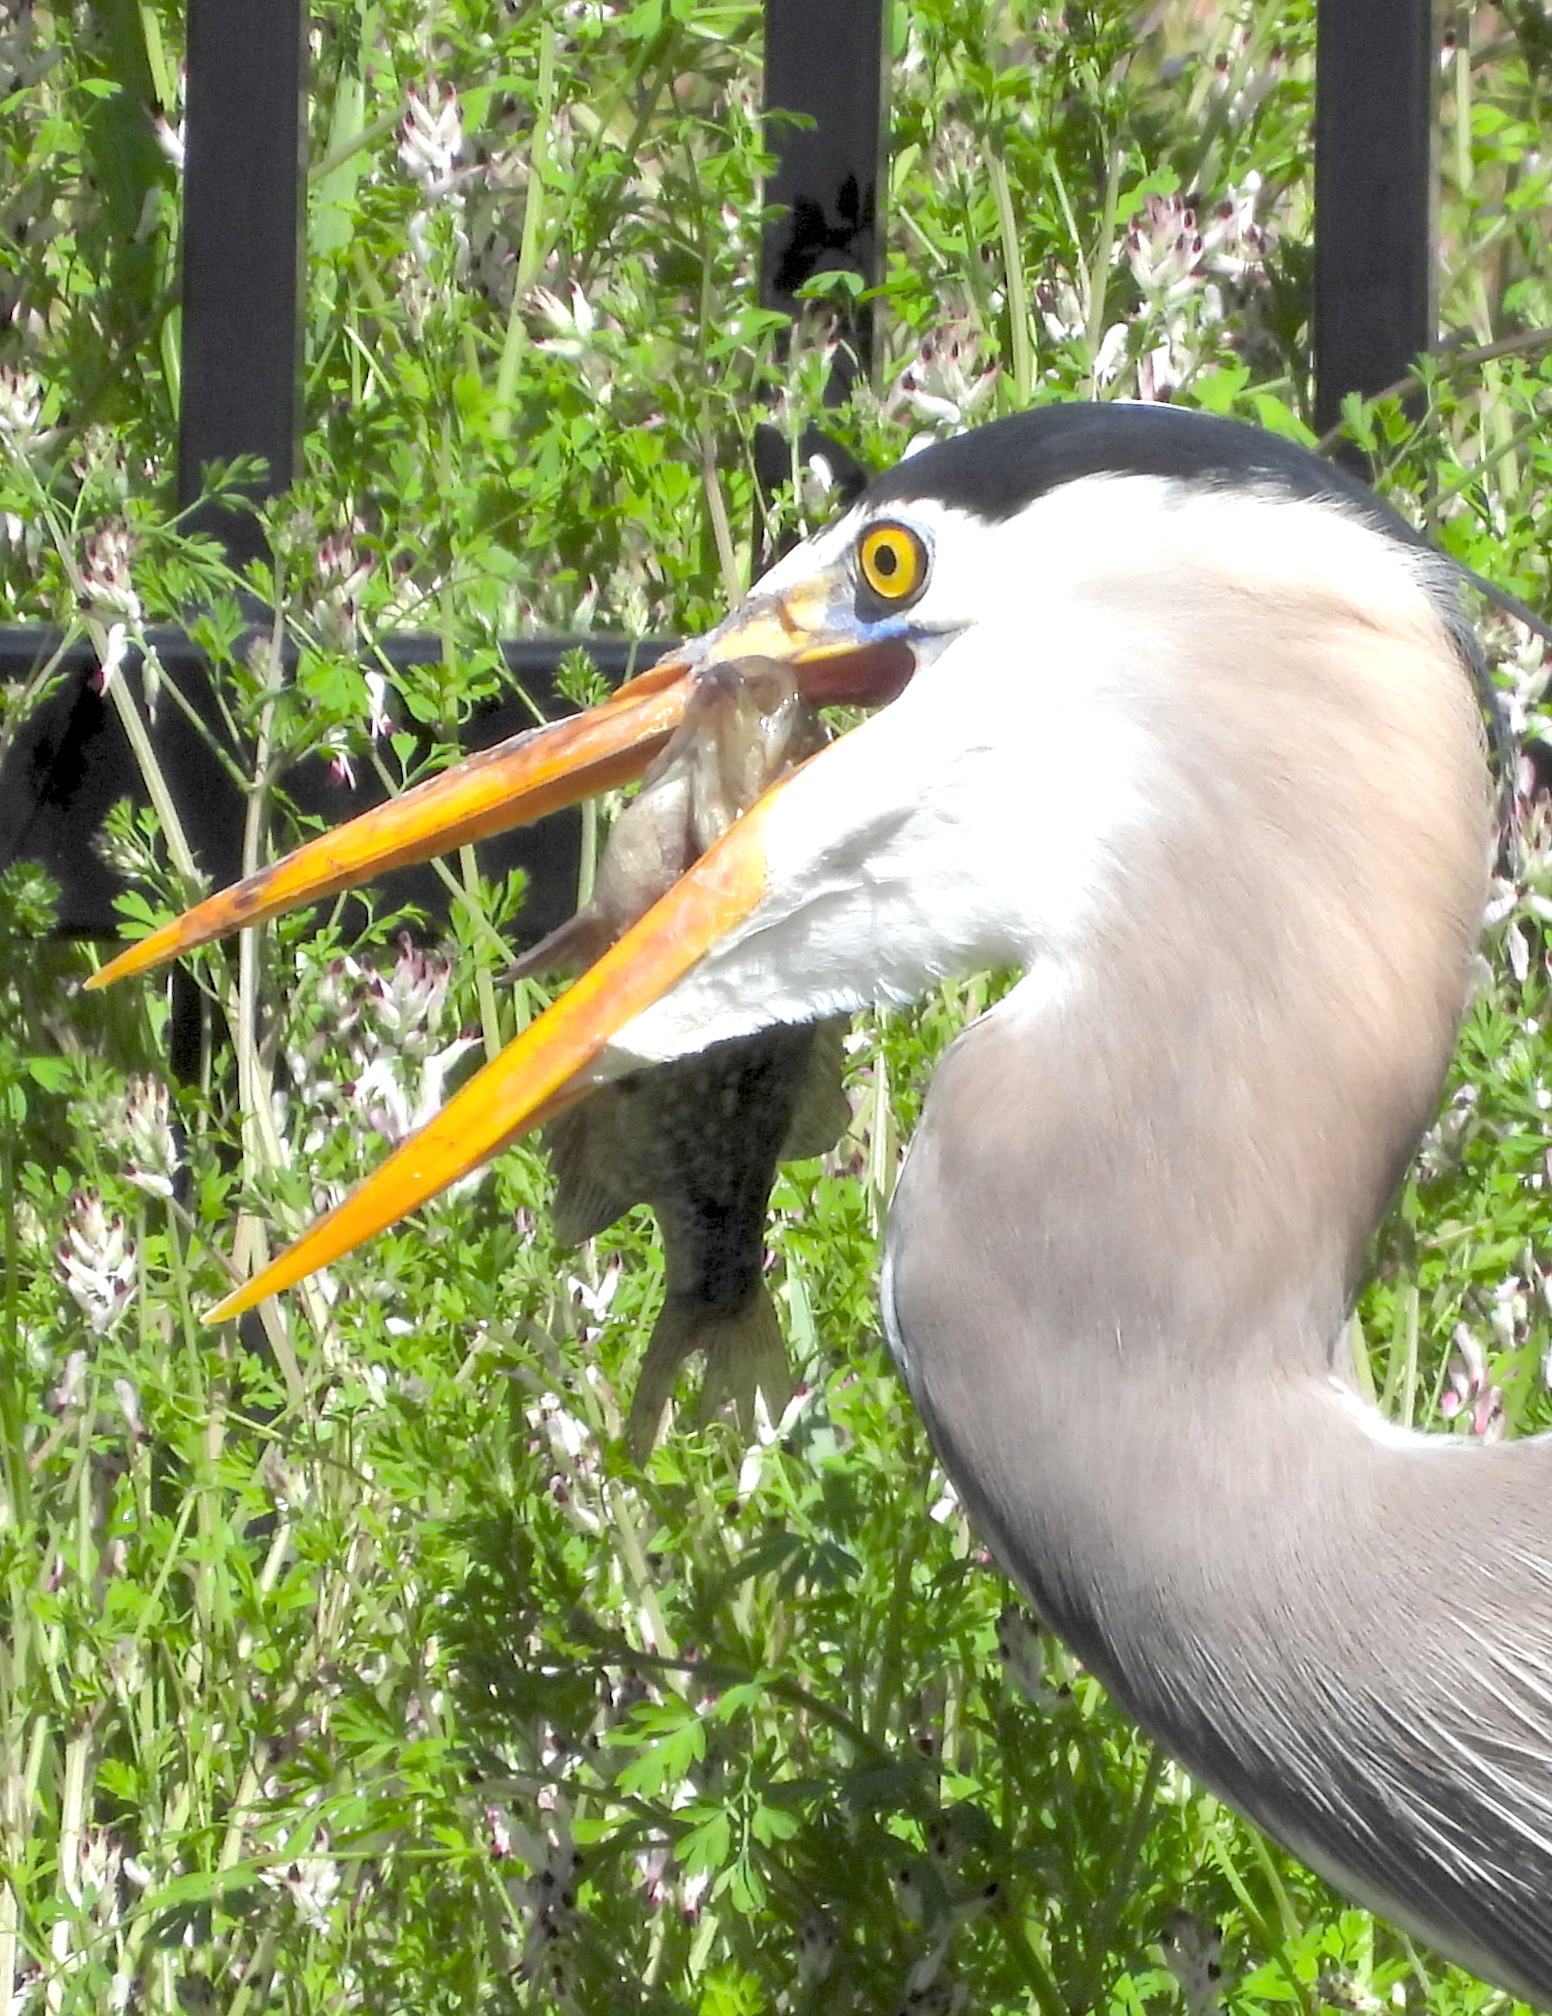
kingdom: Animalia
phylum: Chordata
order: Perciformes
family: Centrarchidae
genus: Archoplites
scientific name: Archoplites interruptus
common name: Sacramento perch
